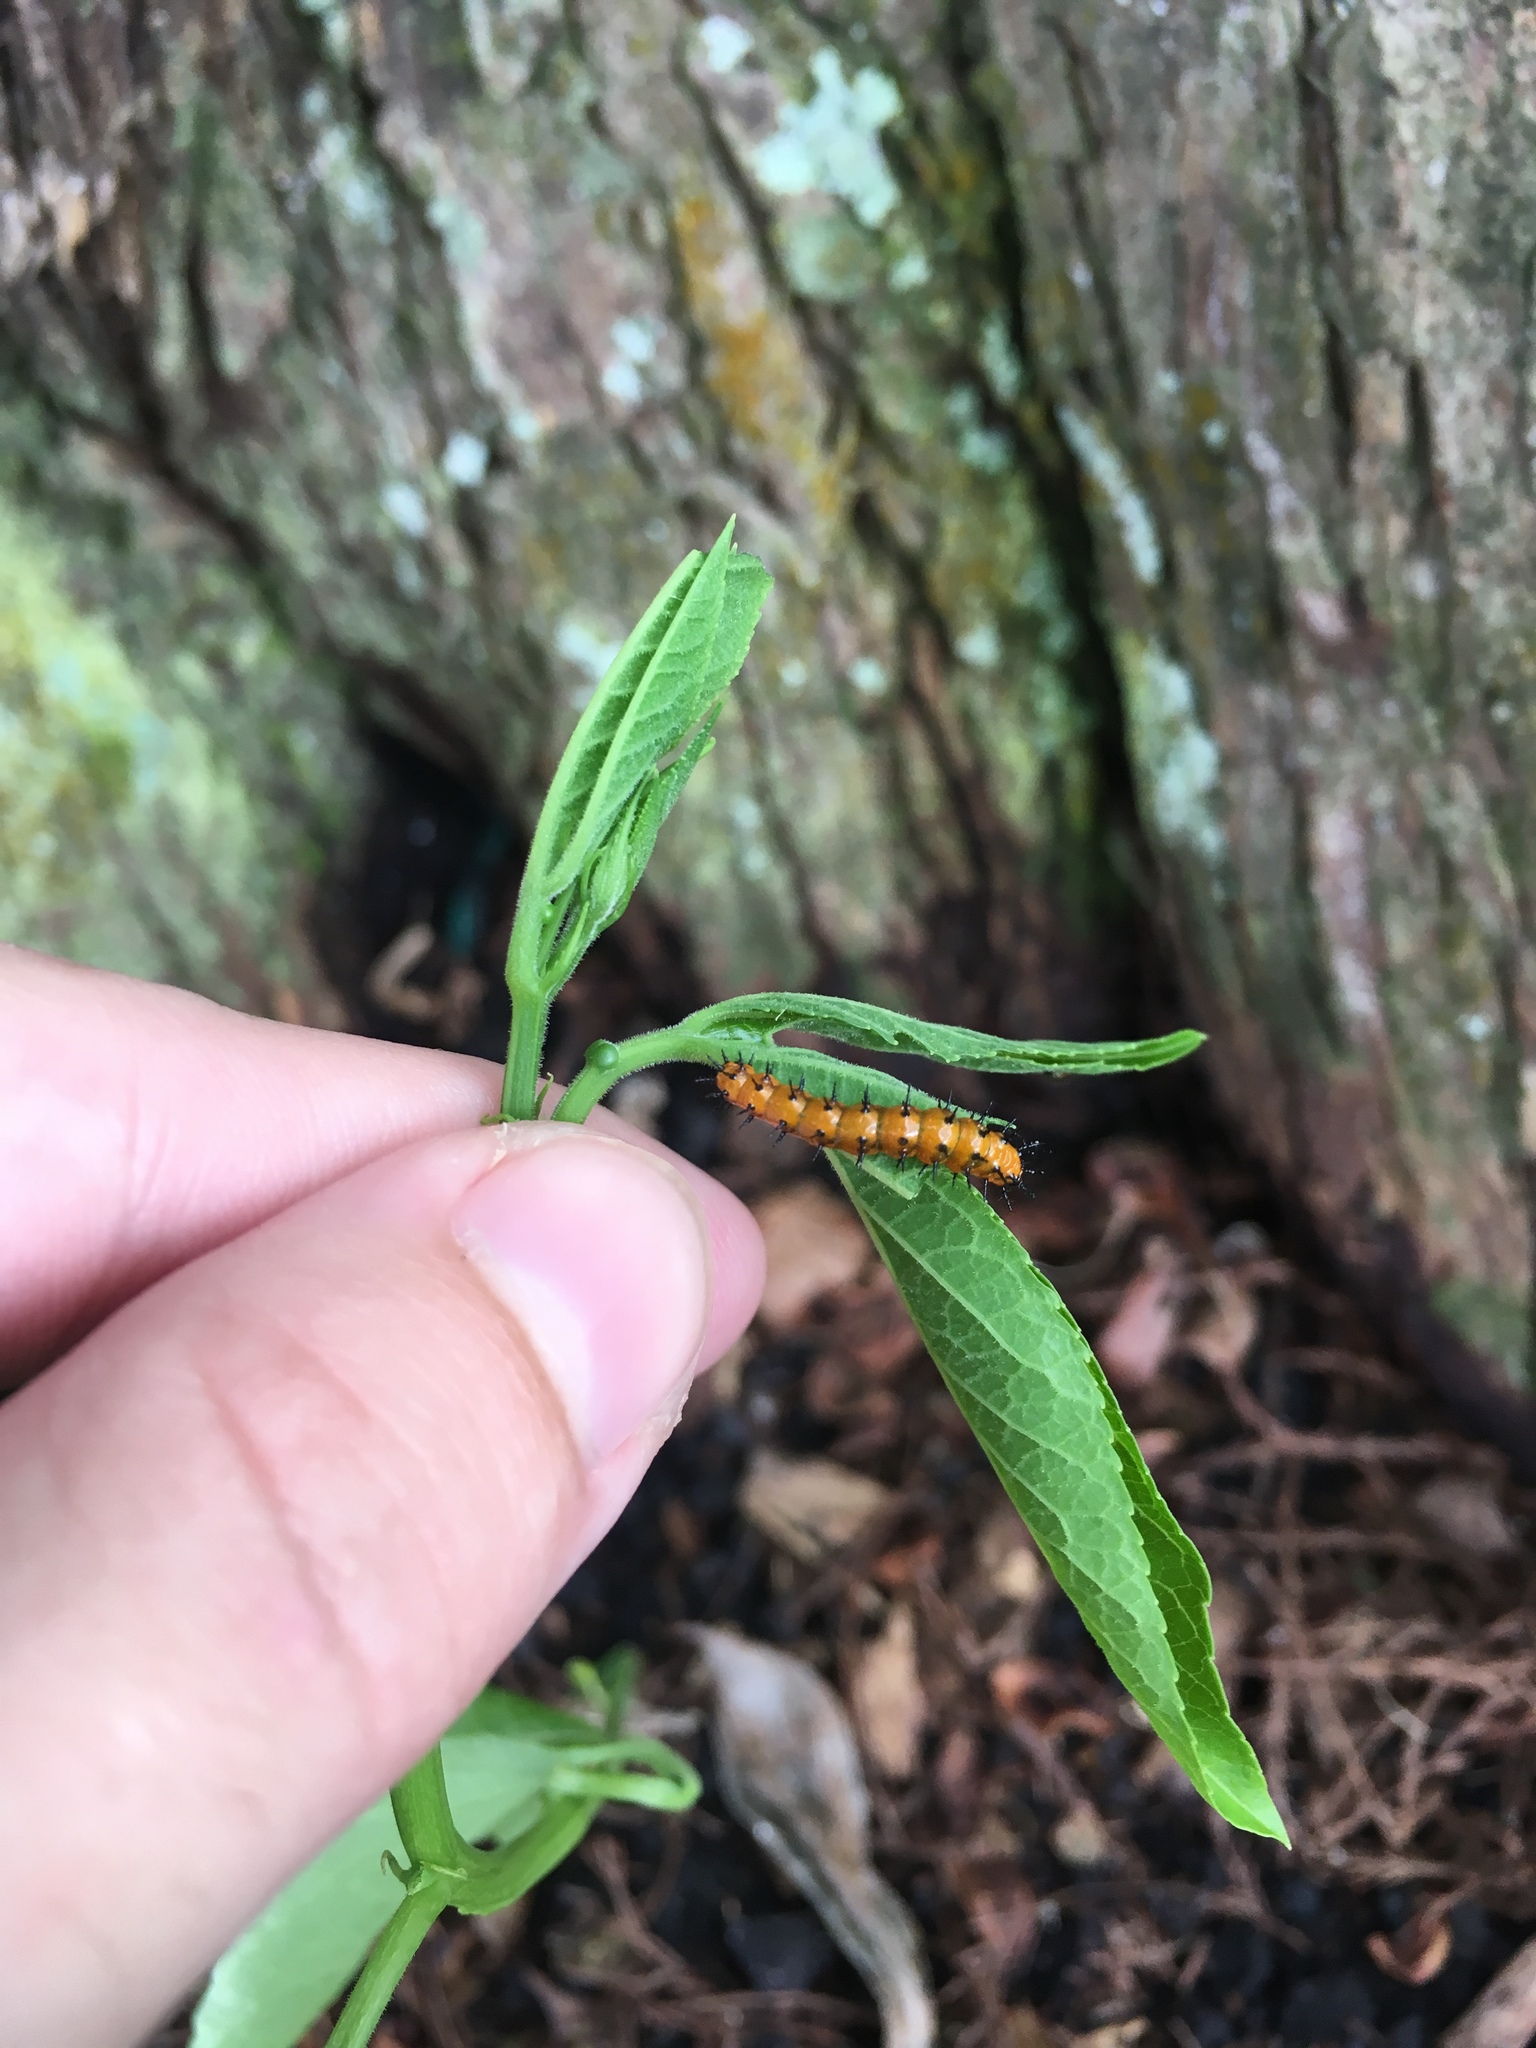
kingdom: Animalia
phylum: Arthropoda
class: Insecta
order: Lepidoptera
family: Nymphalidae
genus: Dione
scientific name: Dione vanillae
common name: Gulf fritillary
